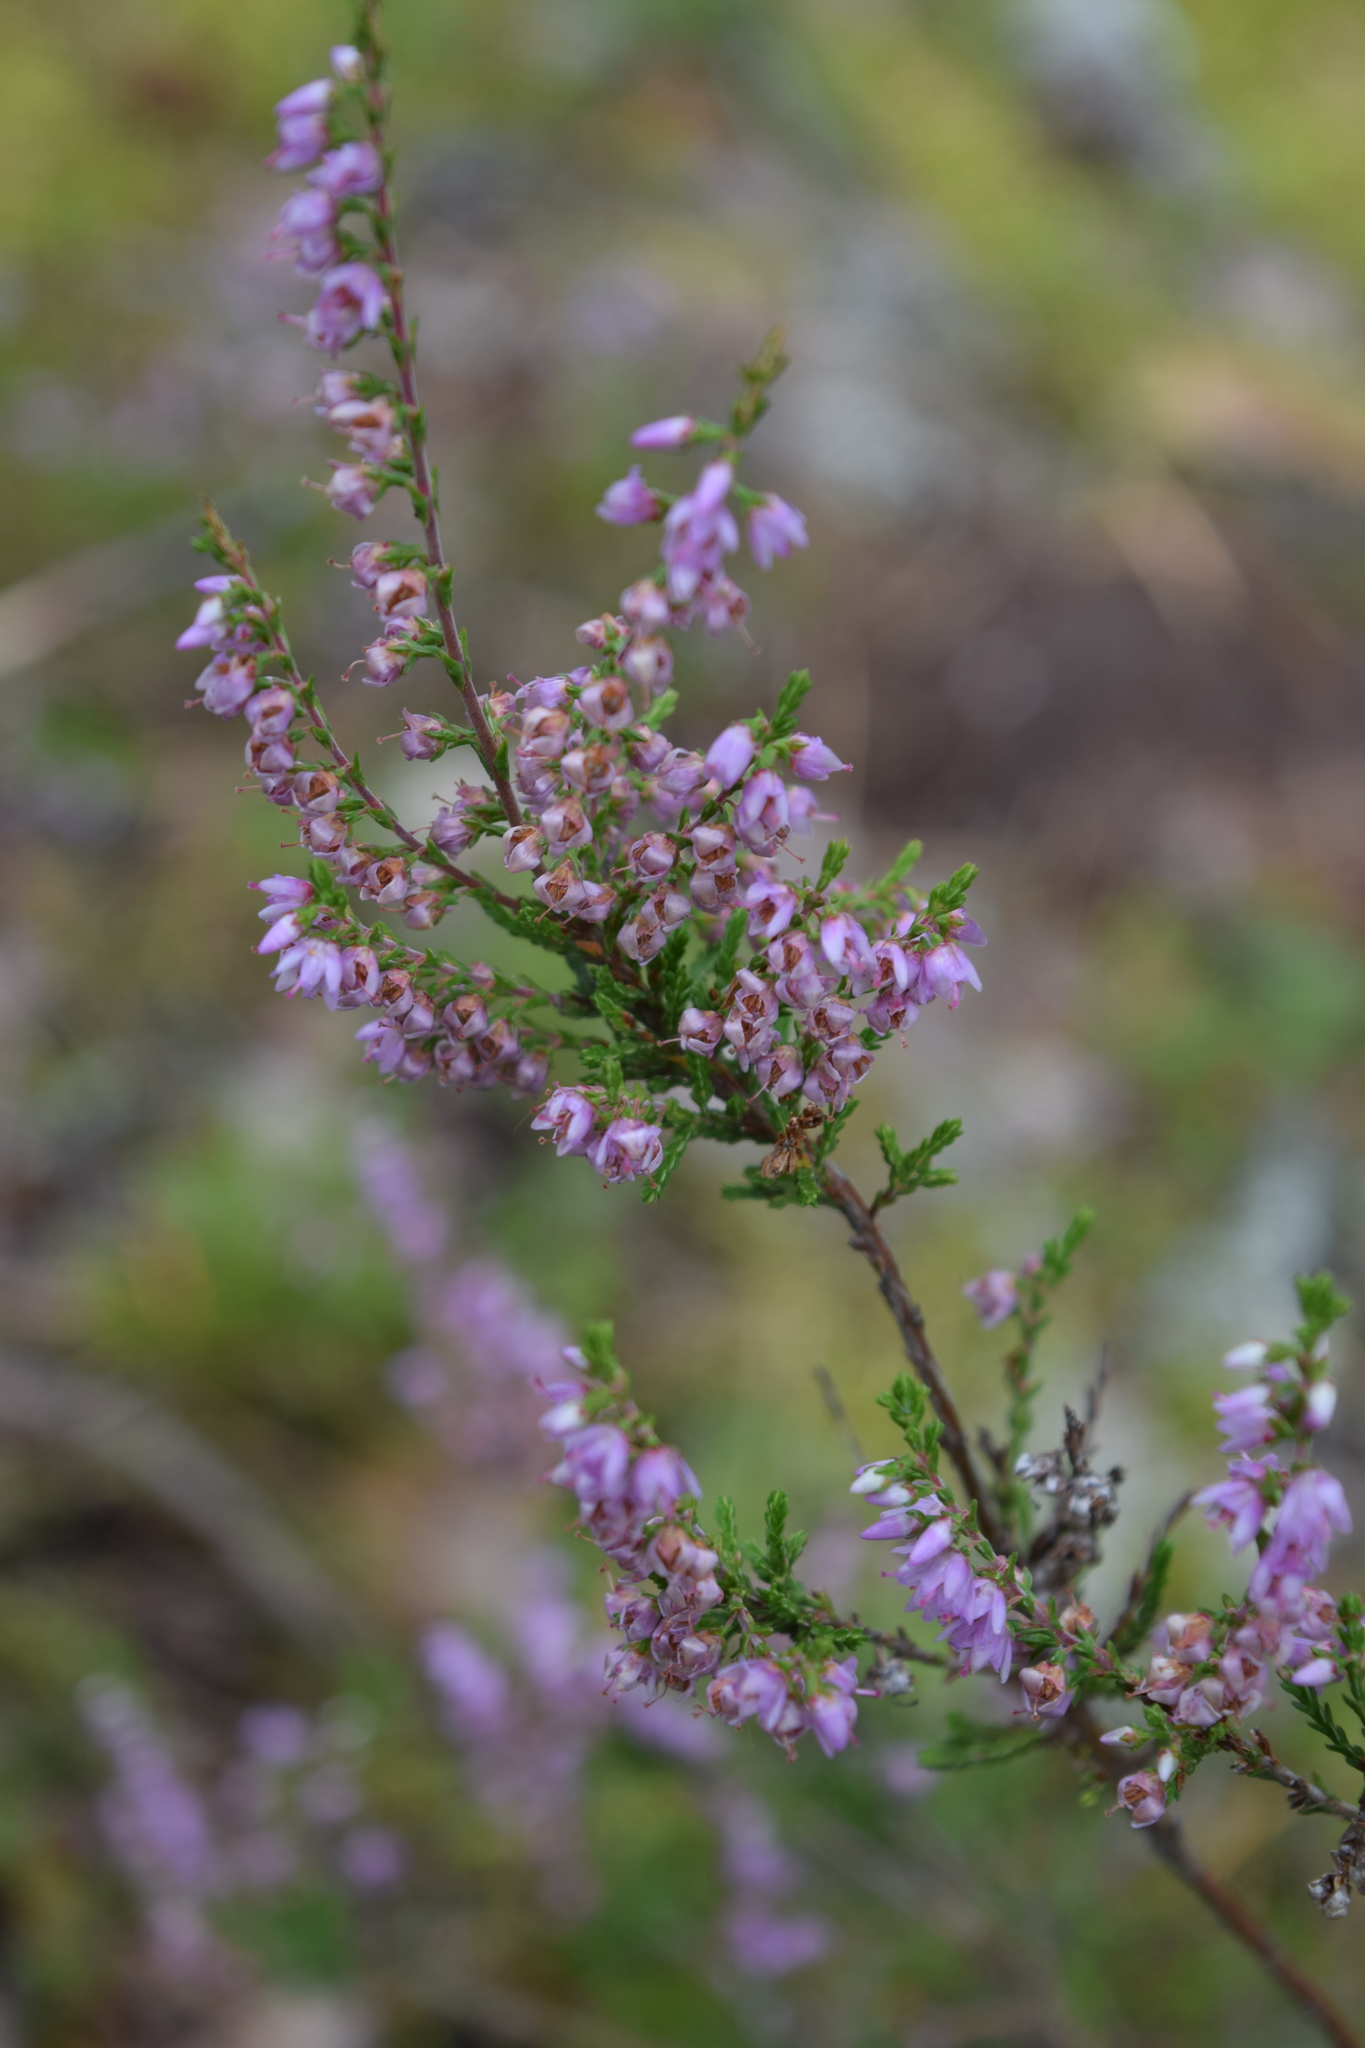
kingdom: Plantae
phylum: Tracheophyta
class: Magnoliopsida
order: Ericales
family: Ericaceae
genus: Calluna
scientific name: Calluna vulgaris
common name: Heather
